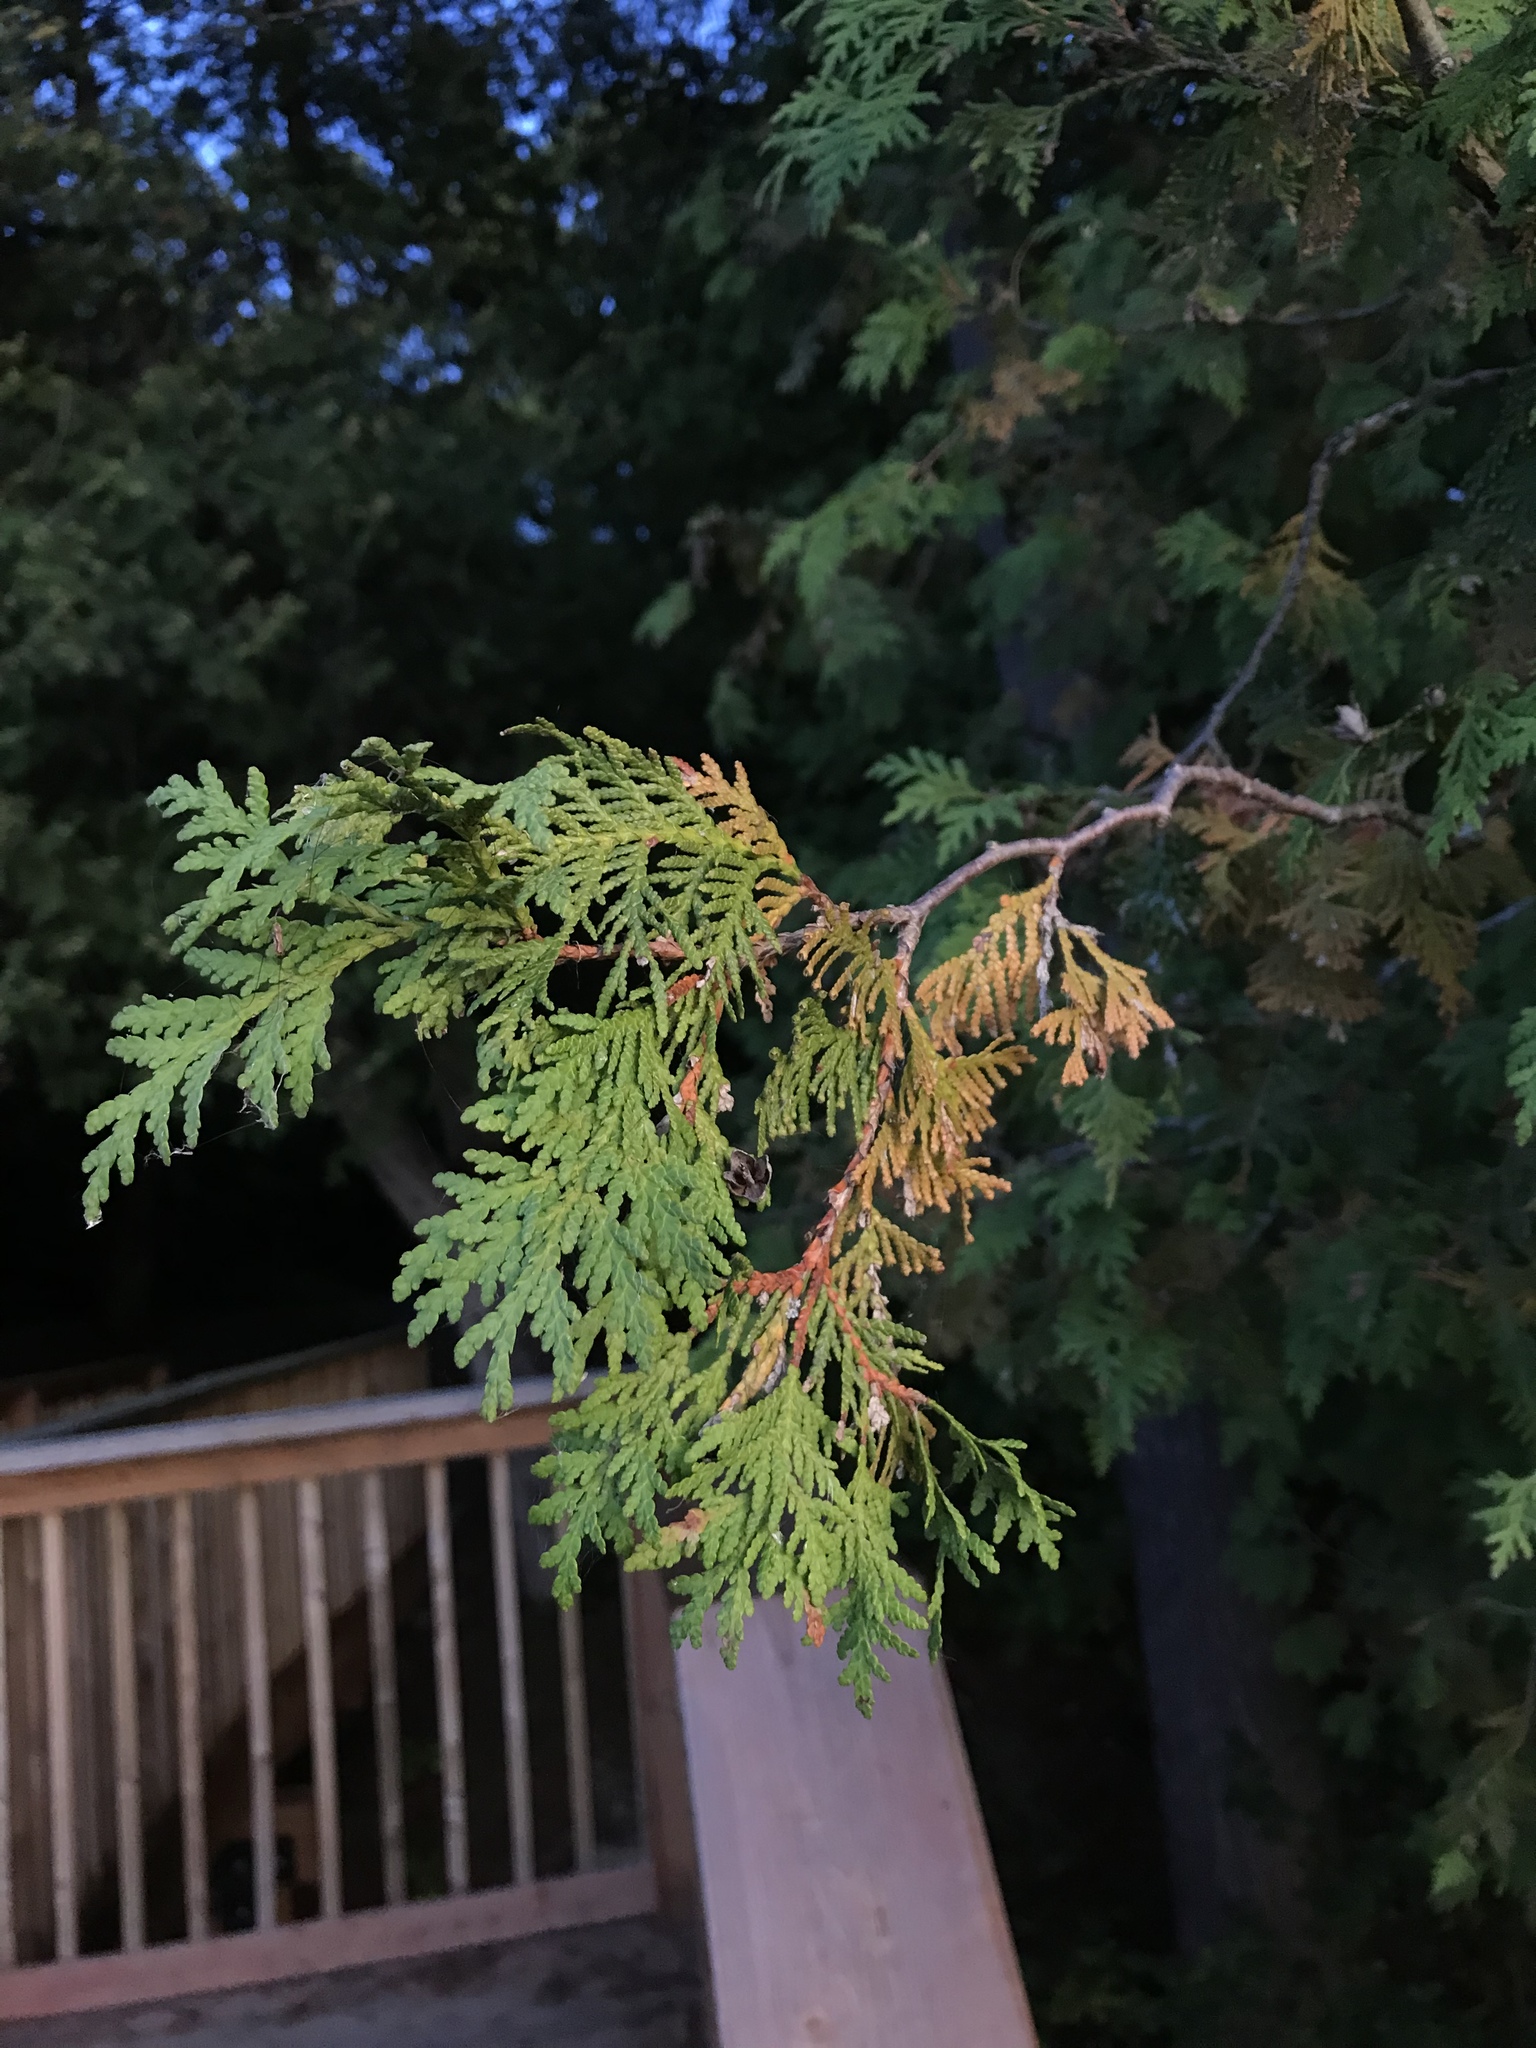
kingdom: Plantae
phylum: Tracheophyta
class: Pinopsida
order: Pinales
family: Cupressaceae
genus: Thuja
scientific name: Thuja occidentalis
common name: Northern white-cedar
